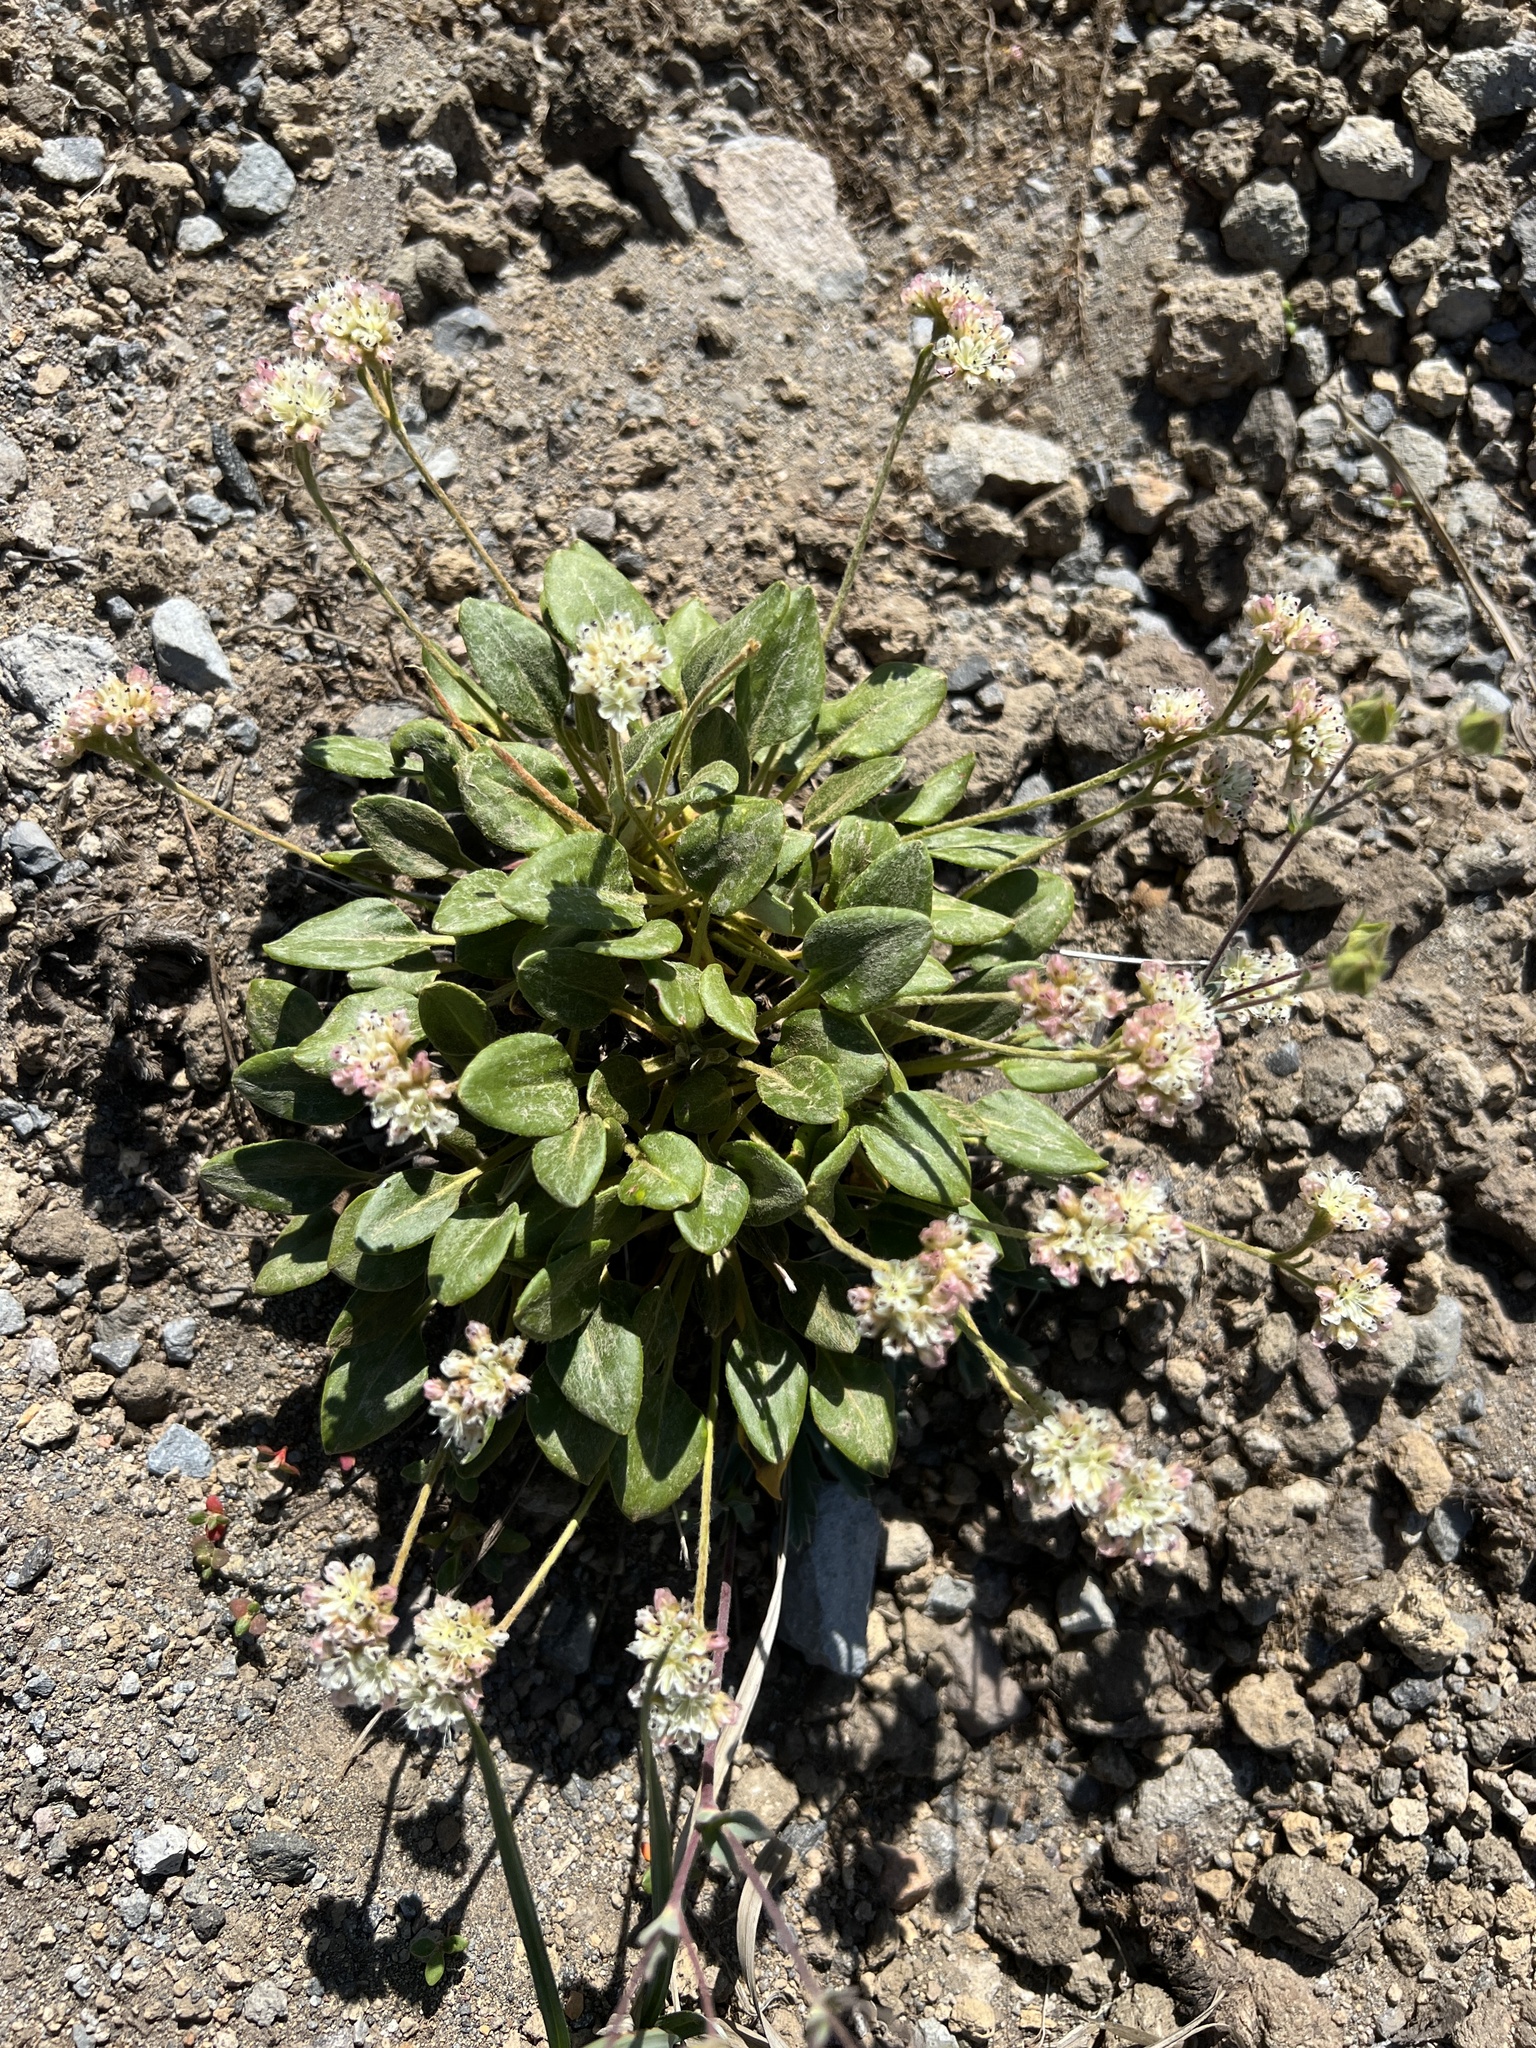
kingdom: Plantae
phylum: Tracheophyta
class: Magnoliopsida
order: Caryophyllales
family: Polygonaceae
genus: Eriogonum
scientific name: Eriogonum pyrolifolium
